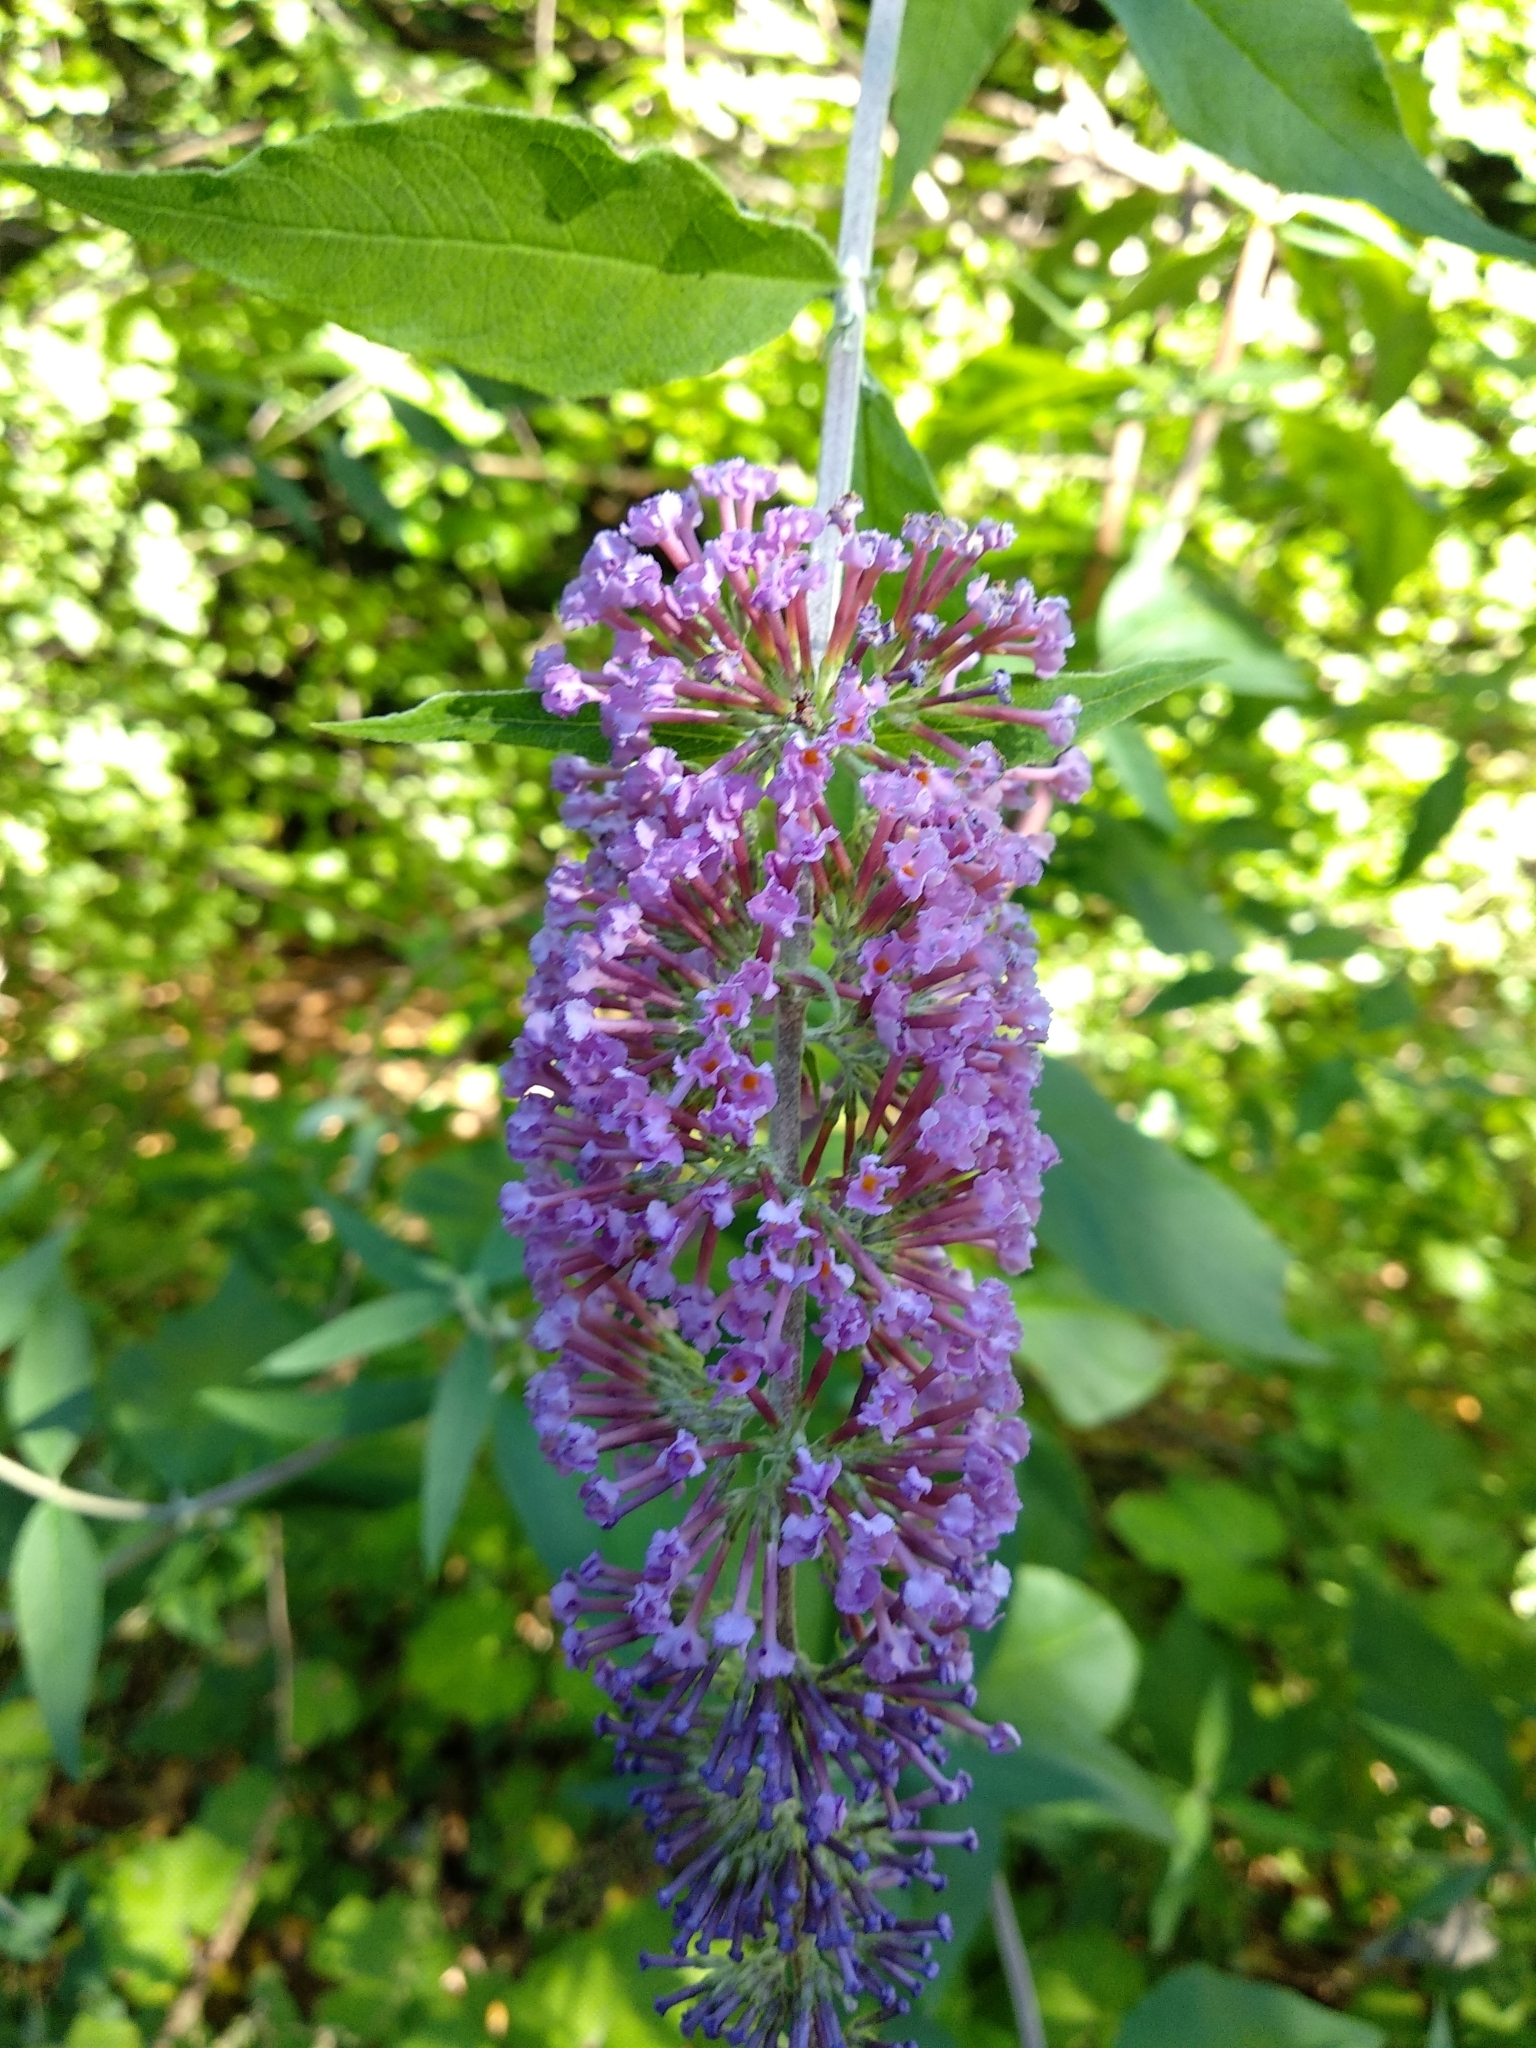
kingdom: Plantae
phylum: Tracheophyta
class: Magnoliopsida
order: Lamiales
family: Scrophulariaceae
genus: Buddleja
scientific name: Buddleja davidii
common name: Butterfly-bush
